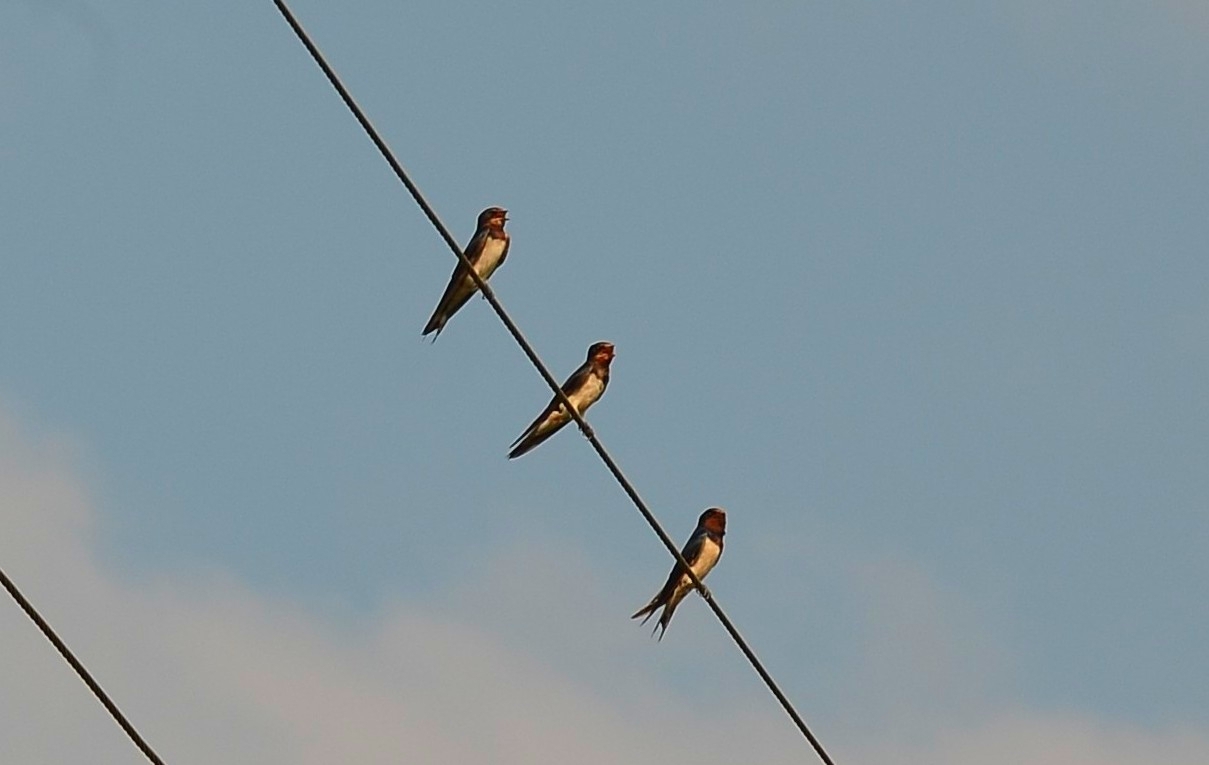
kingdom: Animalia
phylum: Chordata
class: Aves
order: Passeriformes
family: Hirundinidae
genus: Hirundo
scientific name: Hirundo rustica
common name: Barn swallow
